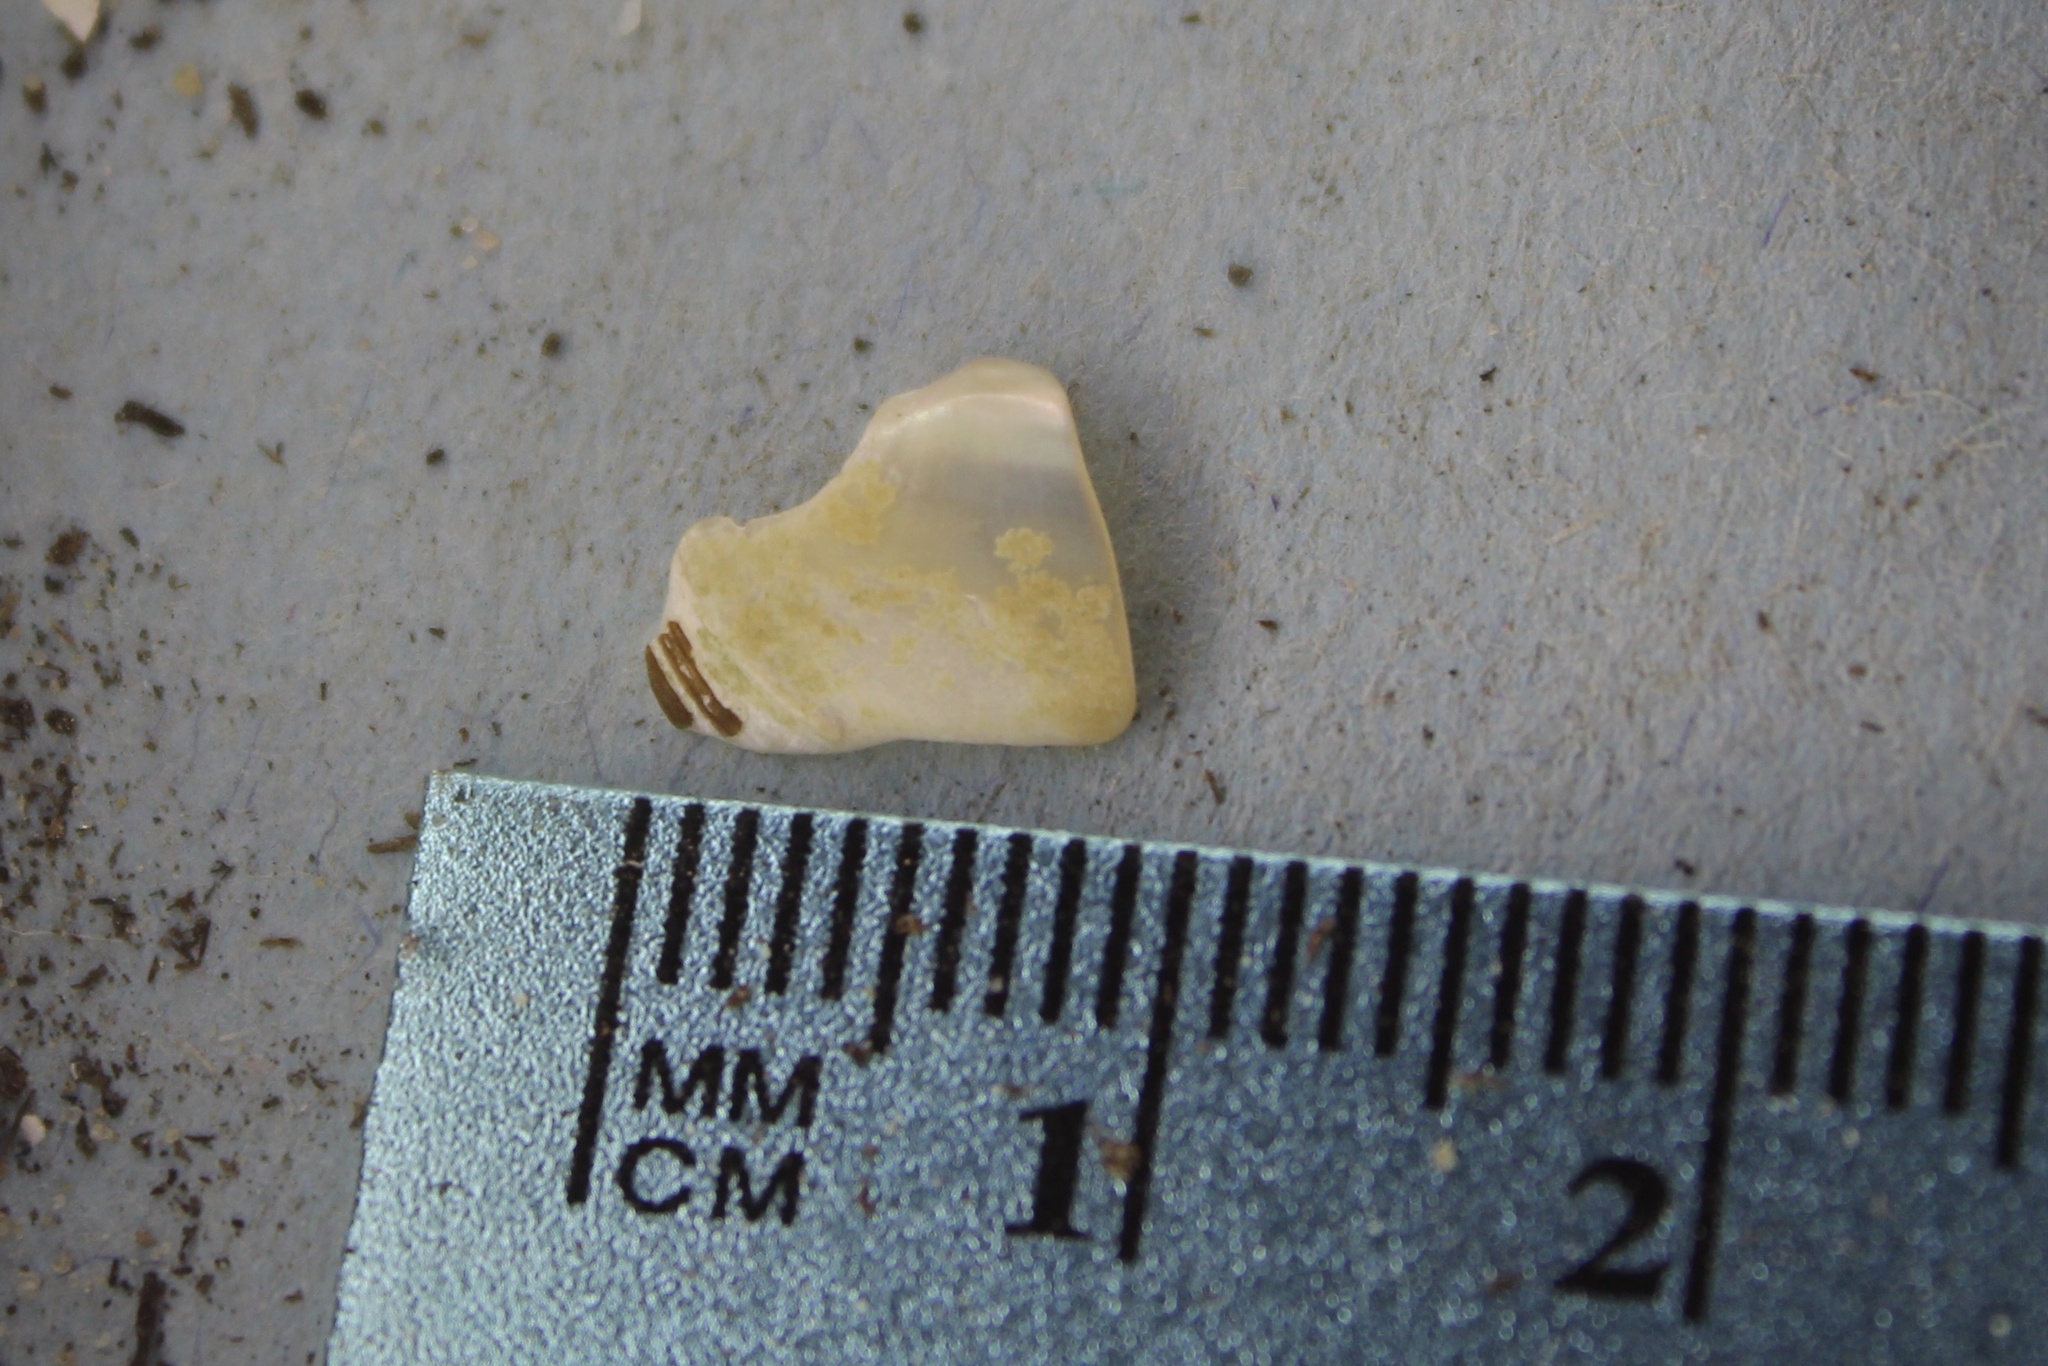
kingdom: Animalia
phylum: Mollusca
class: Bivalvia
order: Unionida
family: Unionidae
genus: Toxolasma
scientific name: Toxolasma parvum
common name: Lilliput
